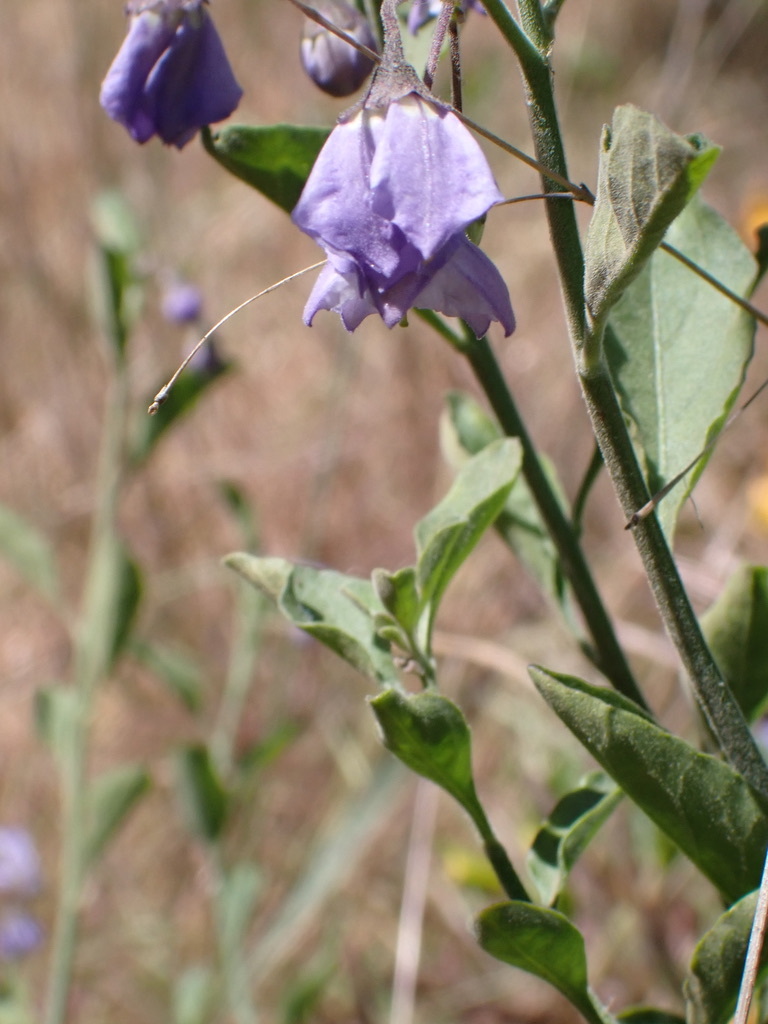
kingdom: Plantae
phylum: Tracheophyta
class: Magnoliopsida
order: Solanales
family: Solanaceae
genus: Solanum
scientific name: Solanum umbelliferum
